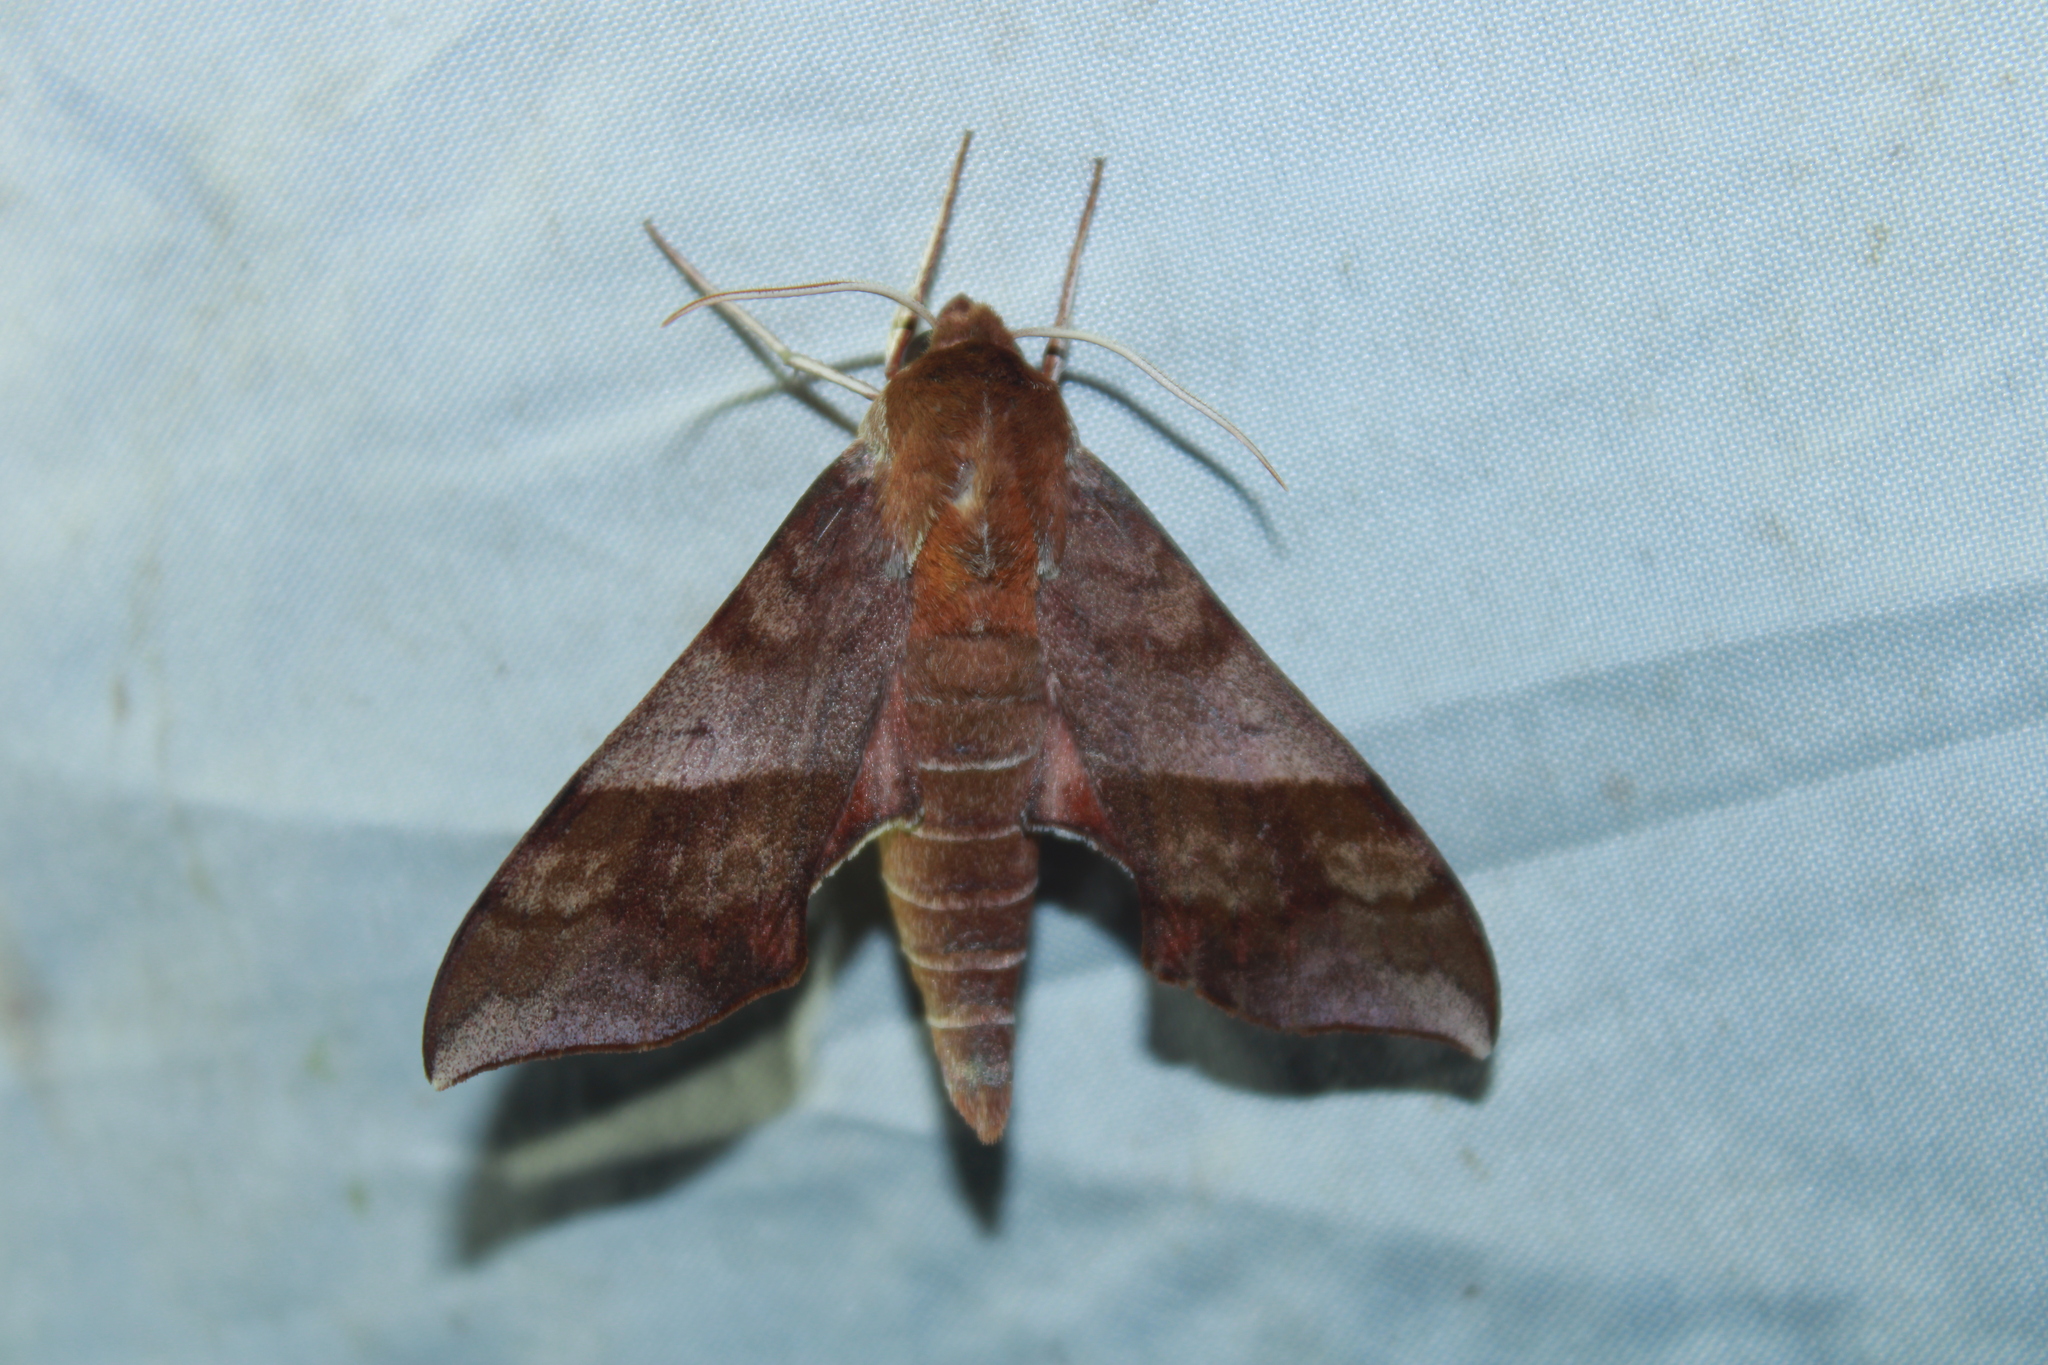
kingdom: Animalia
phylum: Arthropoda
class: Insecta
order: Lepidoptera
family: Sphingidae
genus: Darapsa
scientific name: Darapsa choerilus
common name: Azalea sphinx
